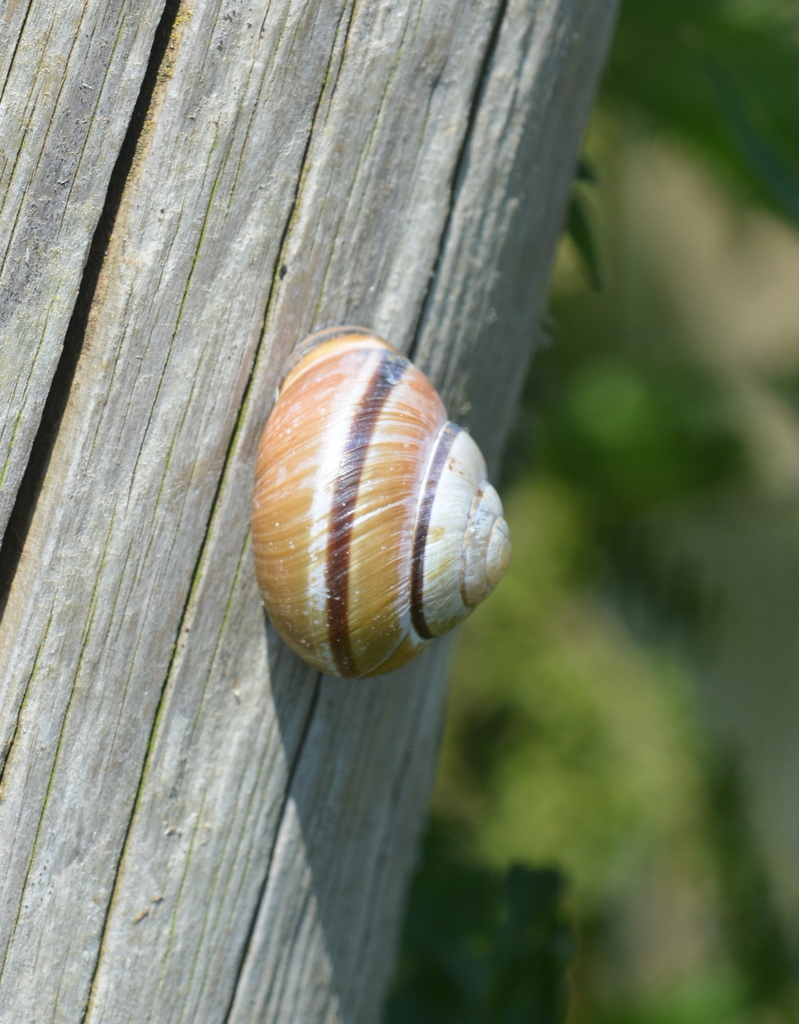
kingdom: Animalia
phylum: Mollusca
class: Gastropoda
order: Stylommatophora
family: Helicidae
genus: Cepaea
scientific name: Cepaea nemoralis
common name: Grovesnail
